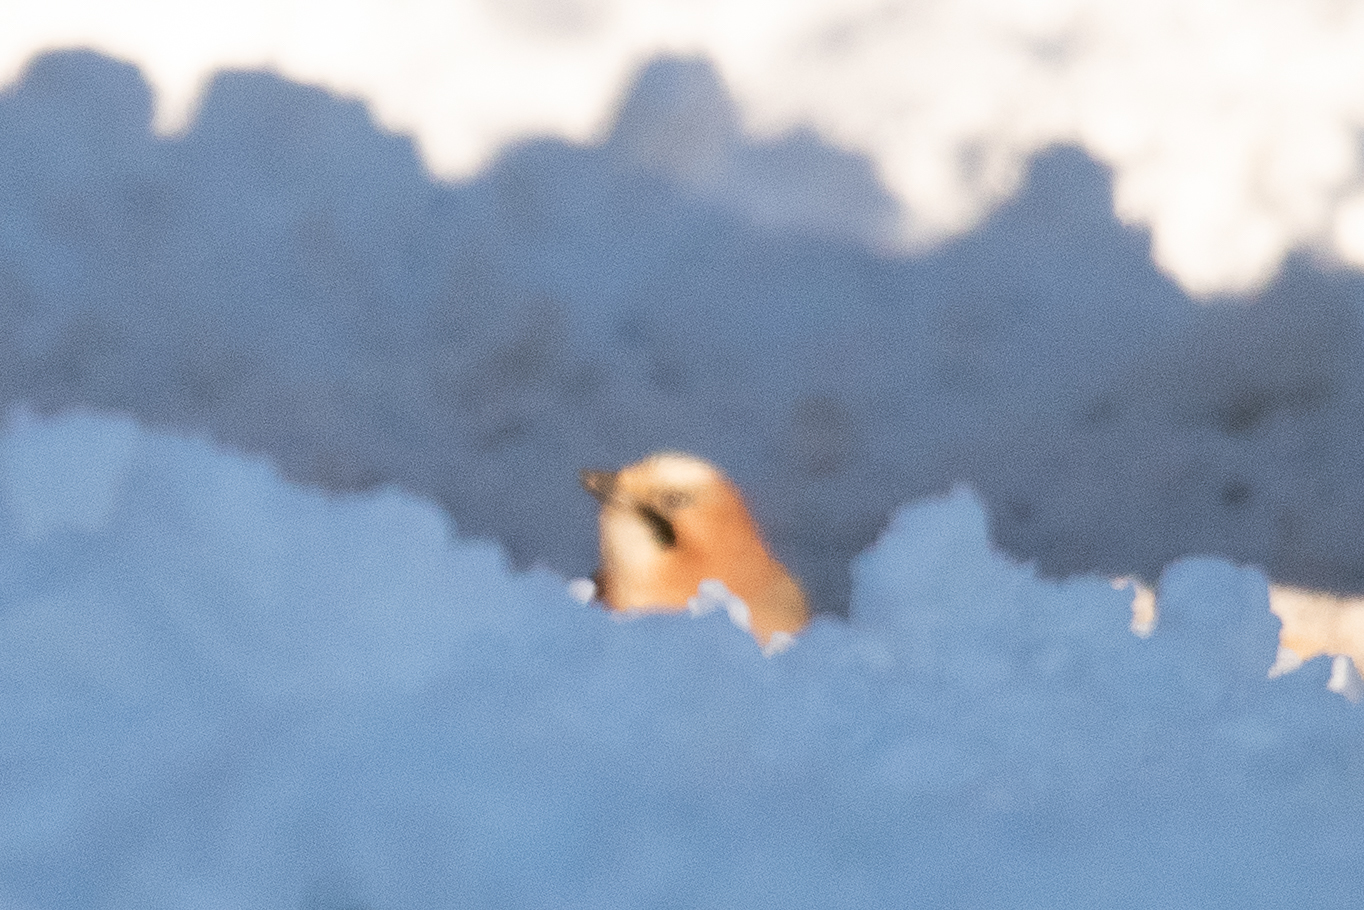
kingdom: Animalia
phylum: Chordata
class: Aves
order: Passeriformes
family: Corvidae
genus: Garrulus
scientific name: Garrulus glandarius
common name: Eurasian jay
